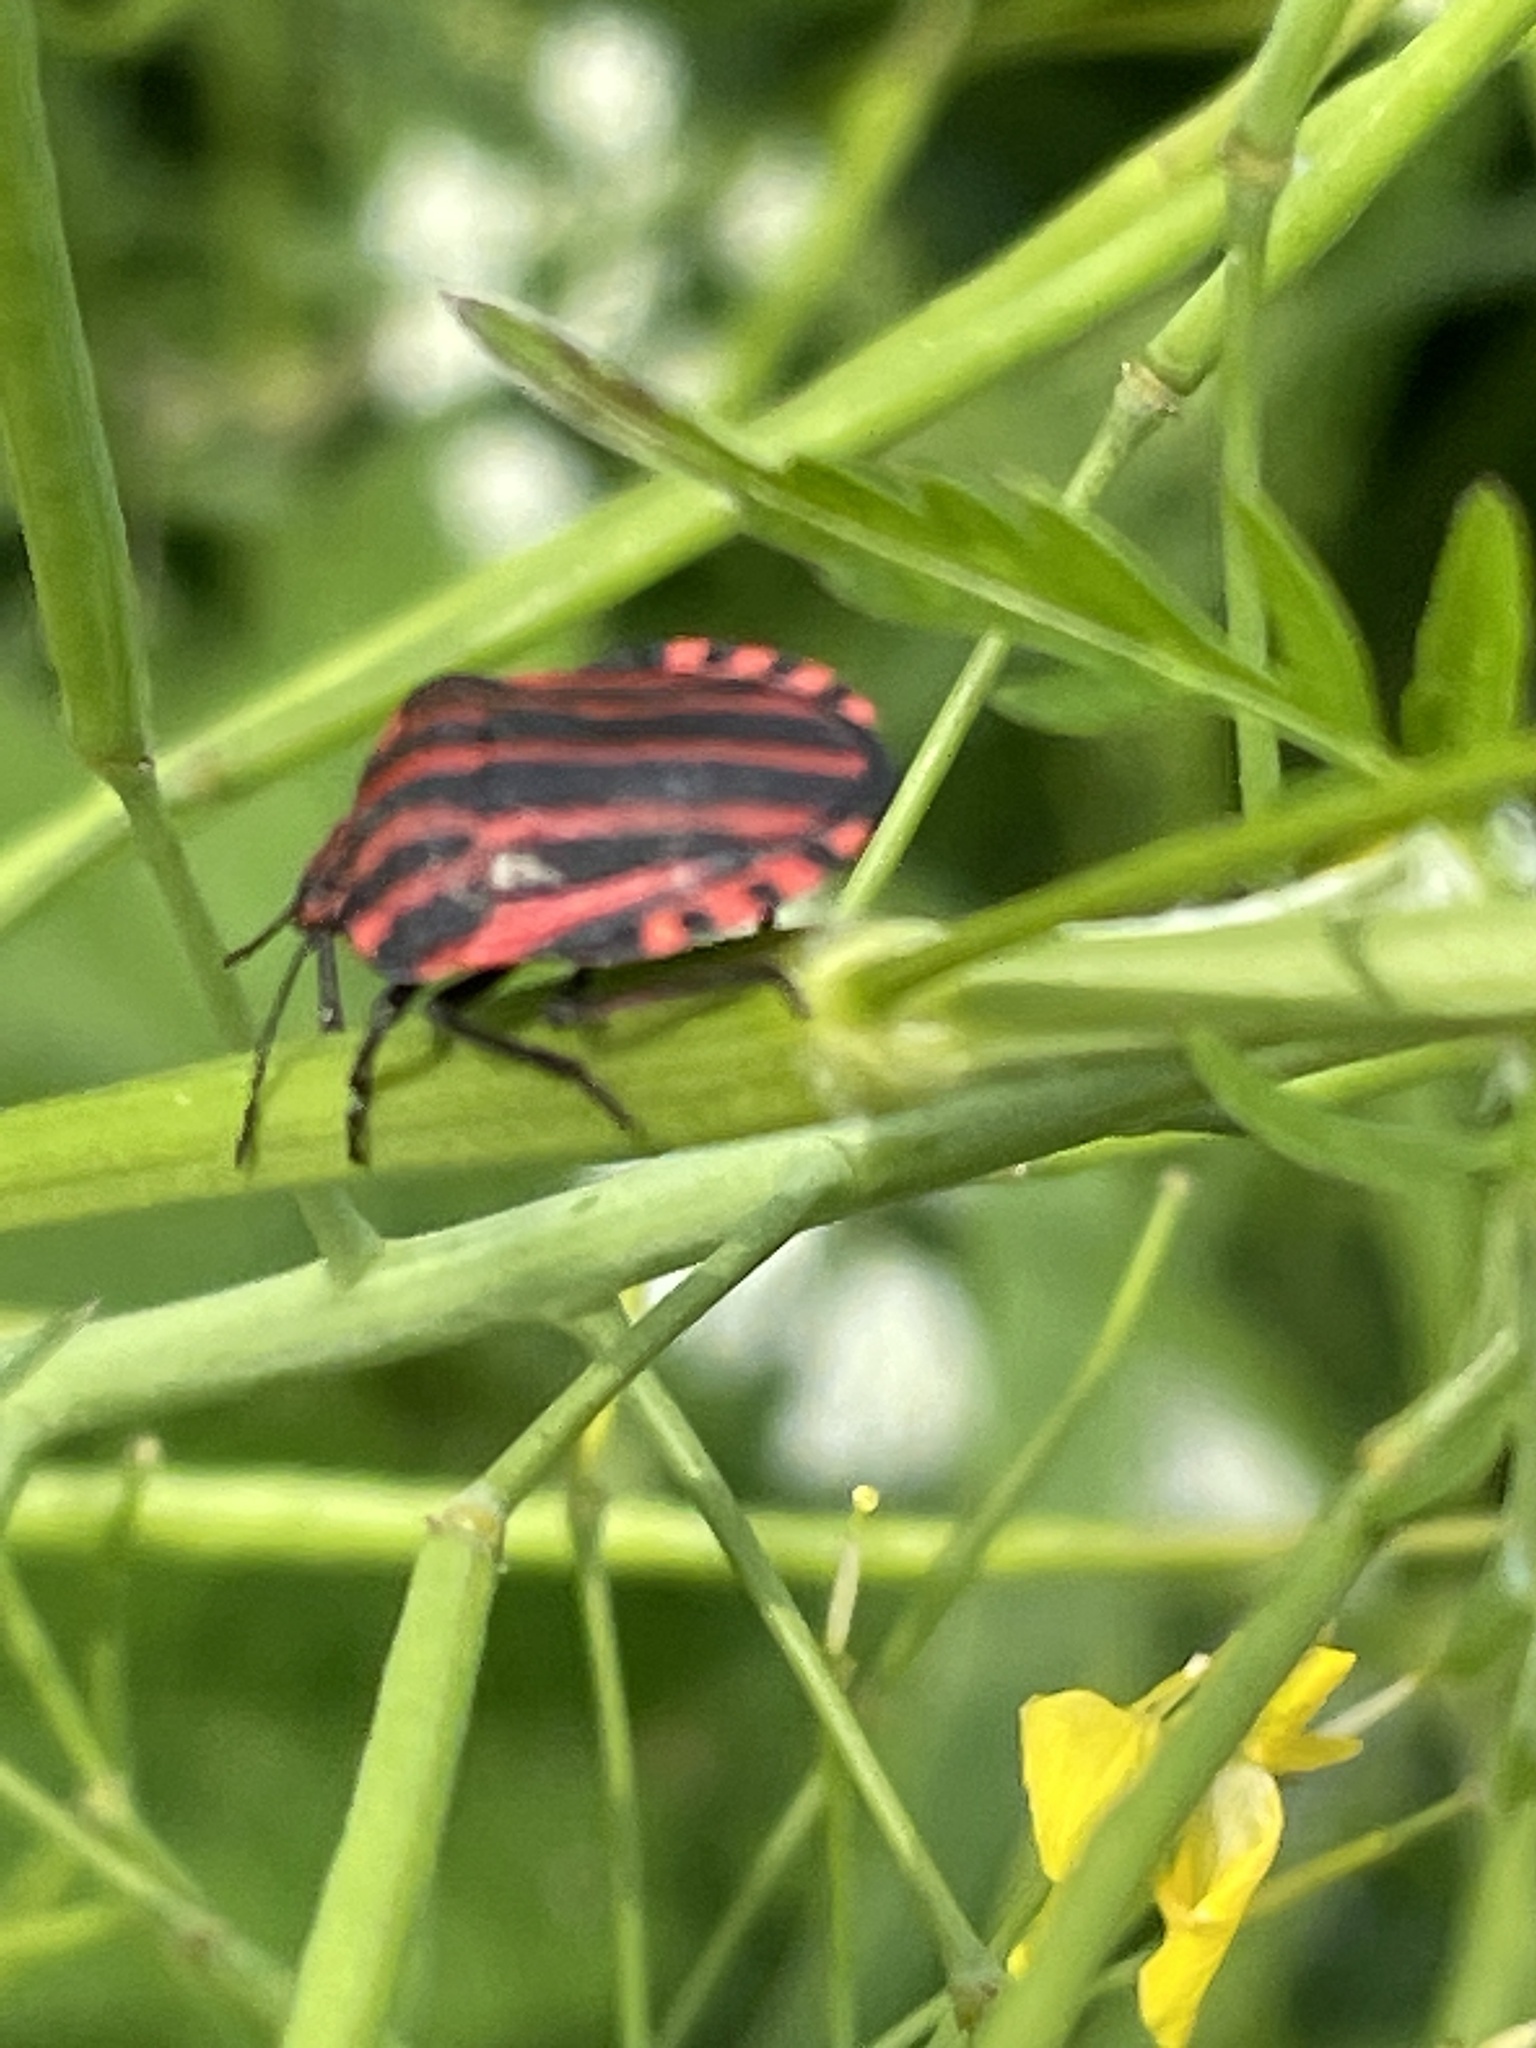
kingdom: Animalia
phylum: Arthropoda
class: Insecta
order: Hemiptera
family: Pentatomidae
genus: Graphosoma
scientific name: Graphosoma italicum
